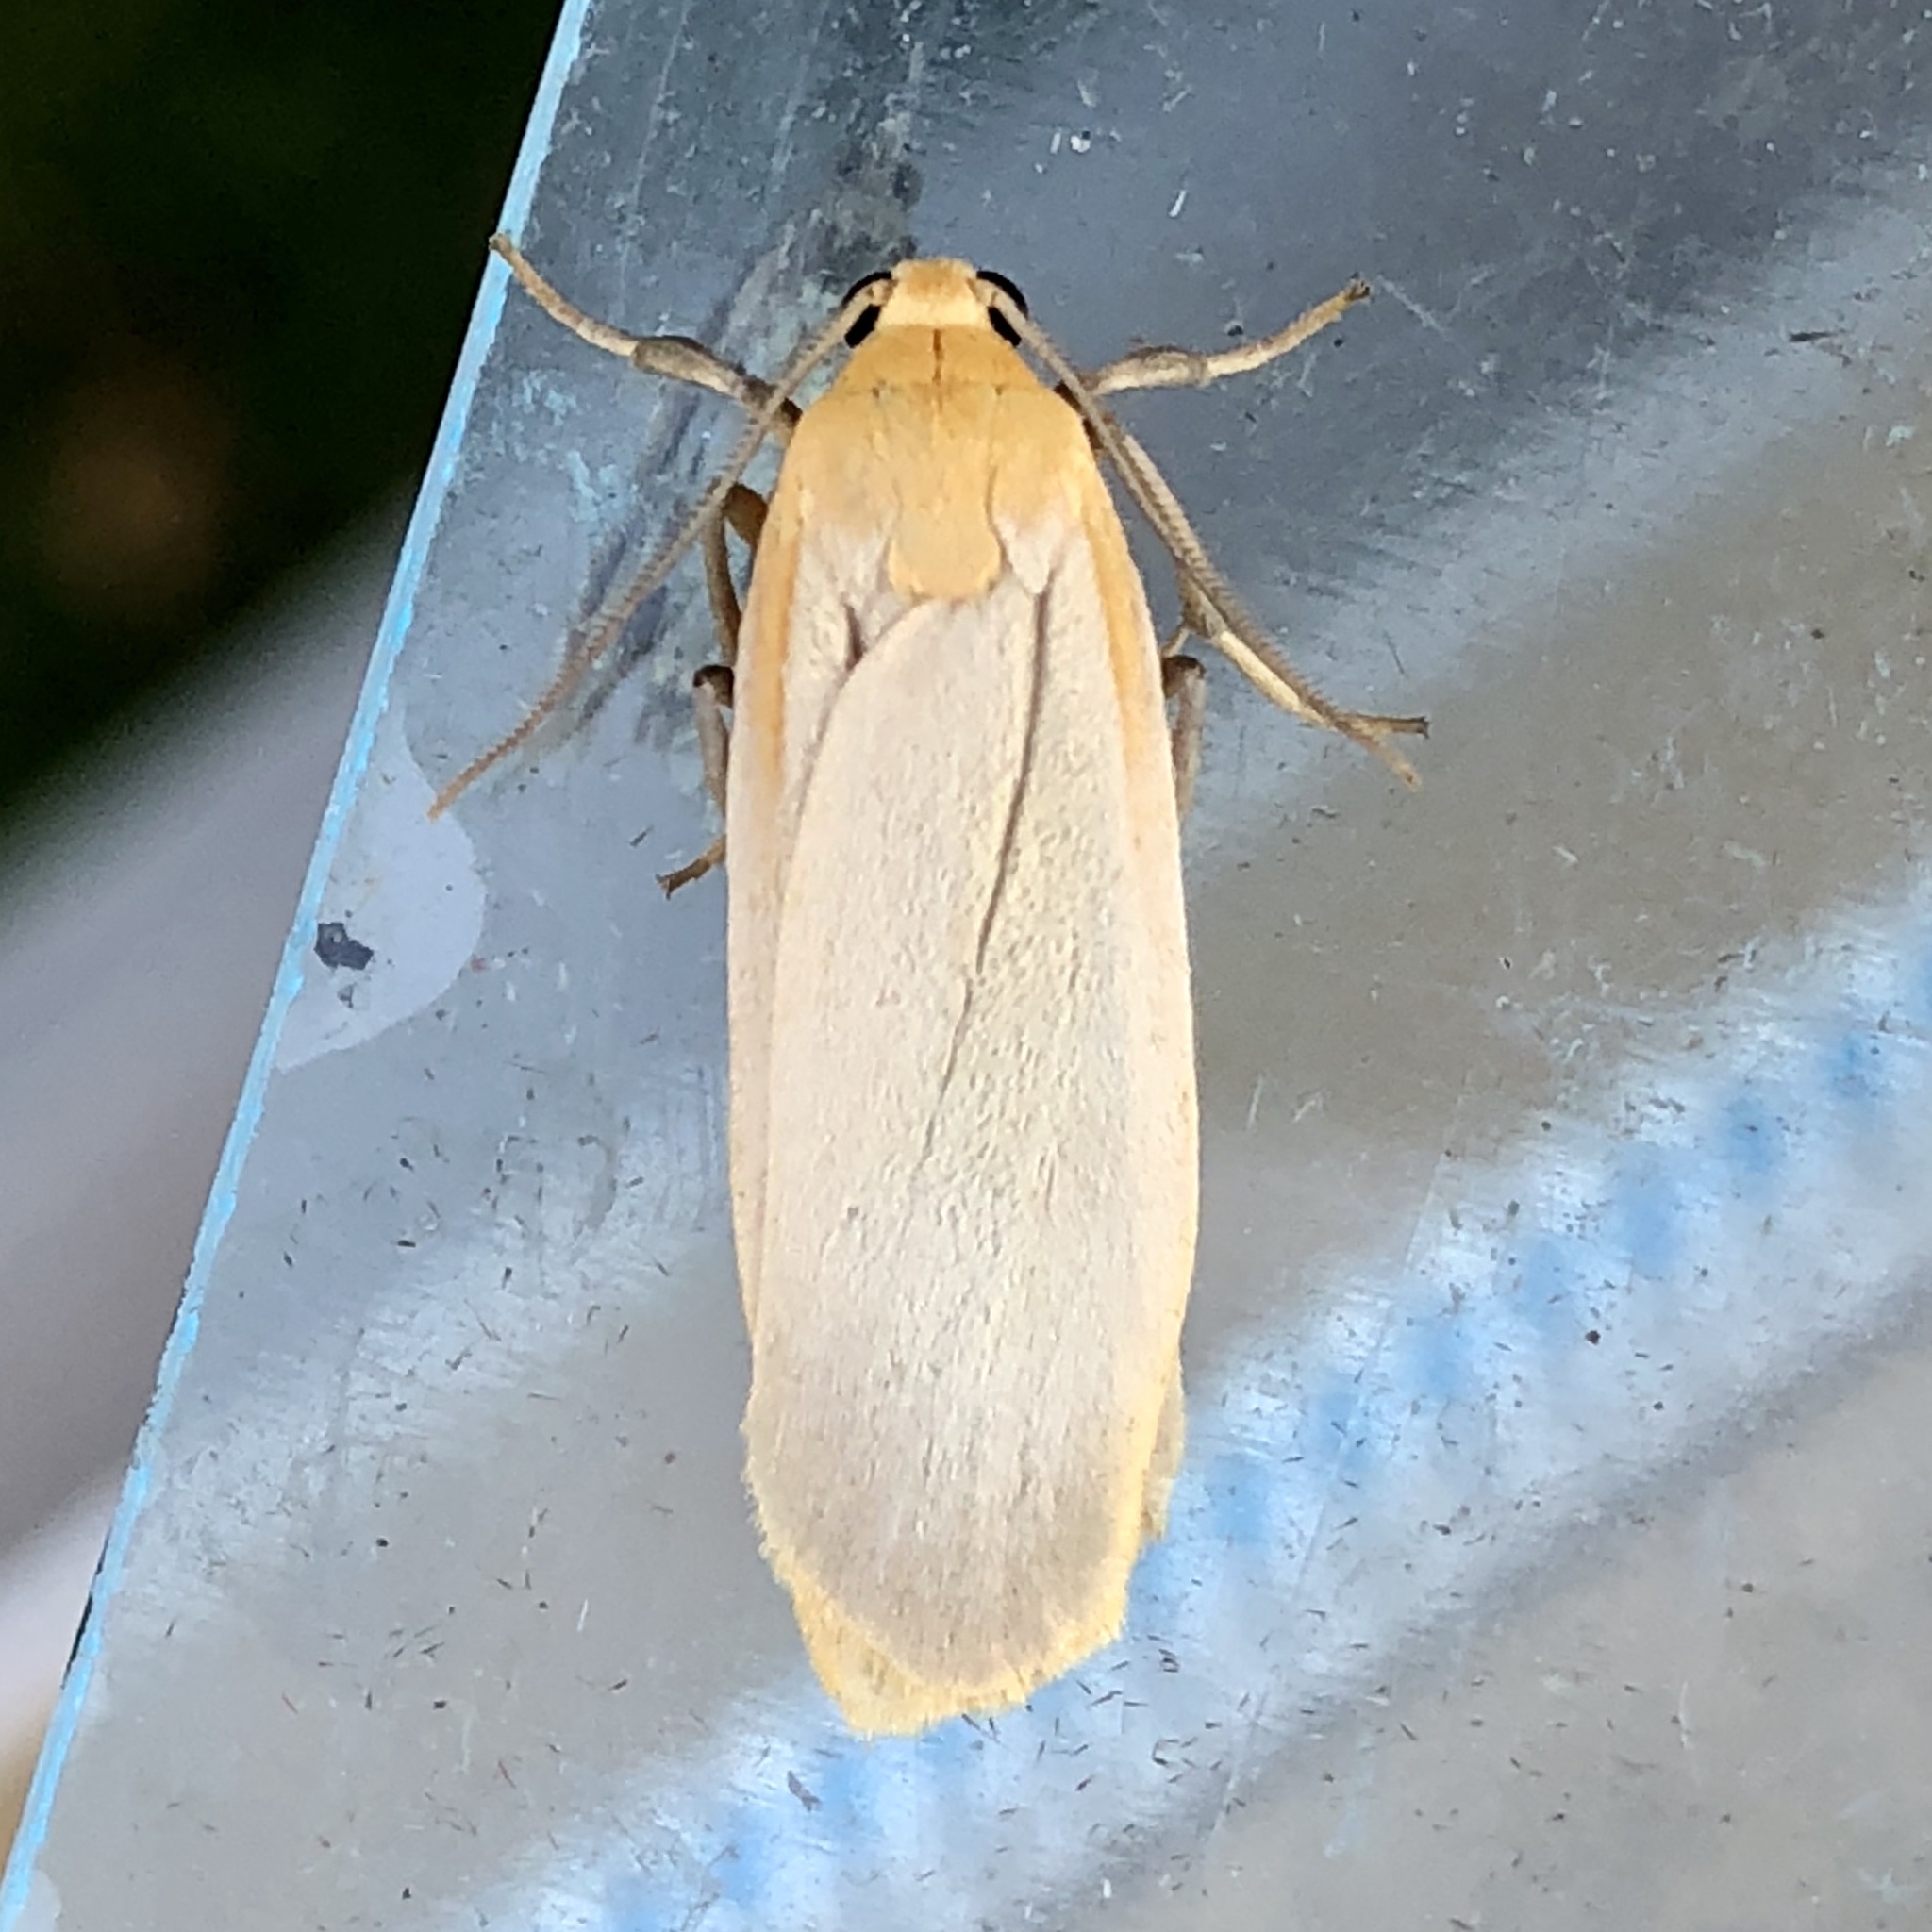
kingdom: Animalia
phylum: Arthropoda
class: Insecta
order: Lepidoptera
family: Erebidae
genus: Katha
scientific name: Katha depressa
